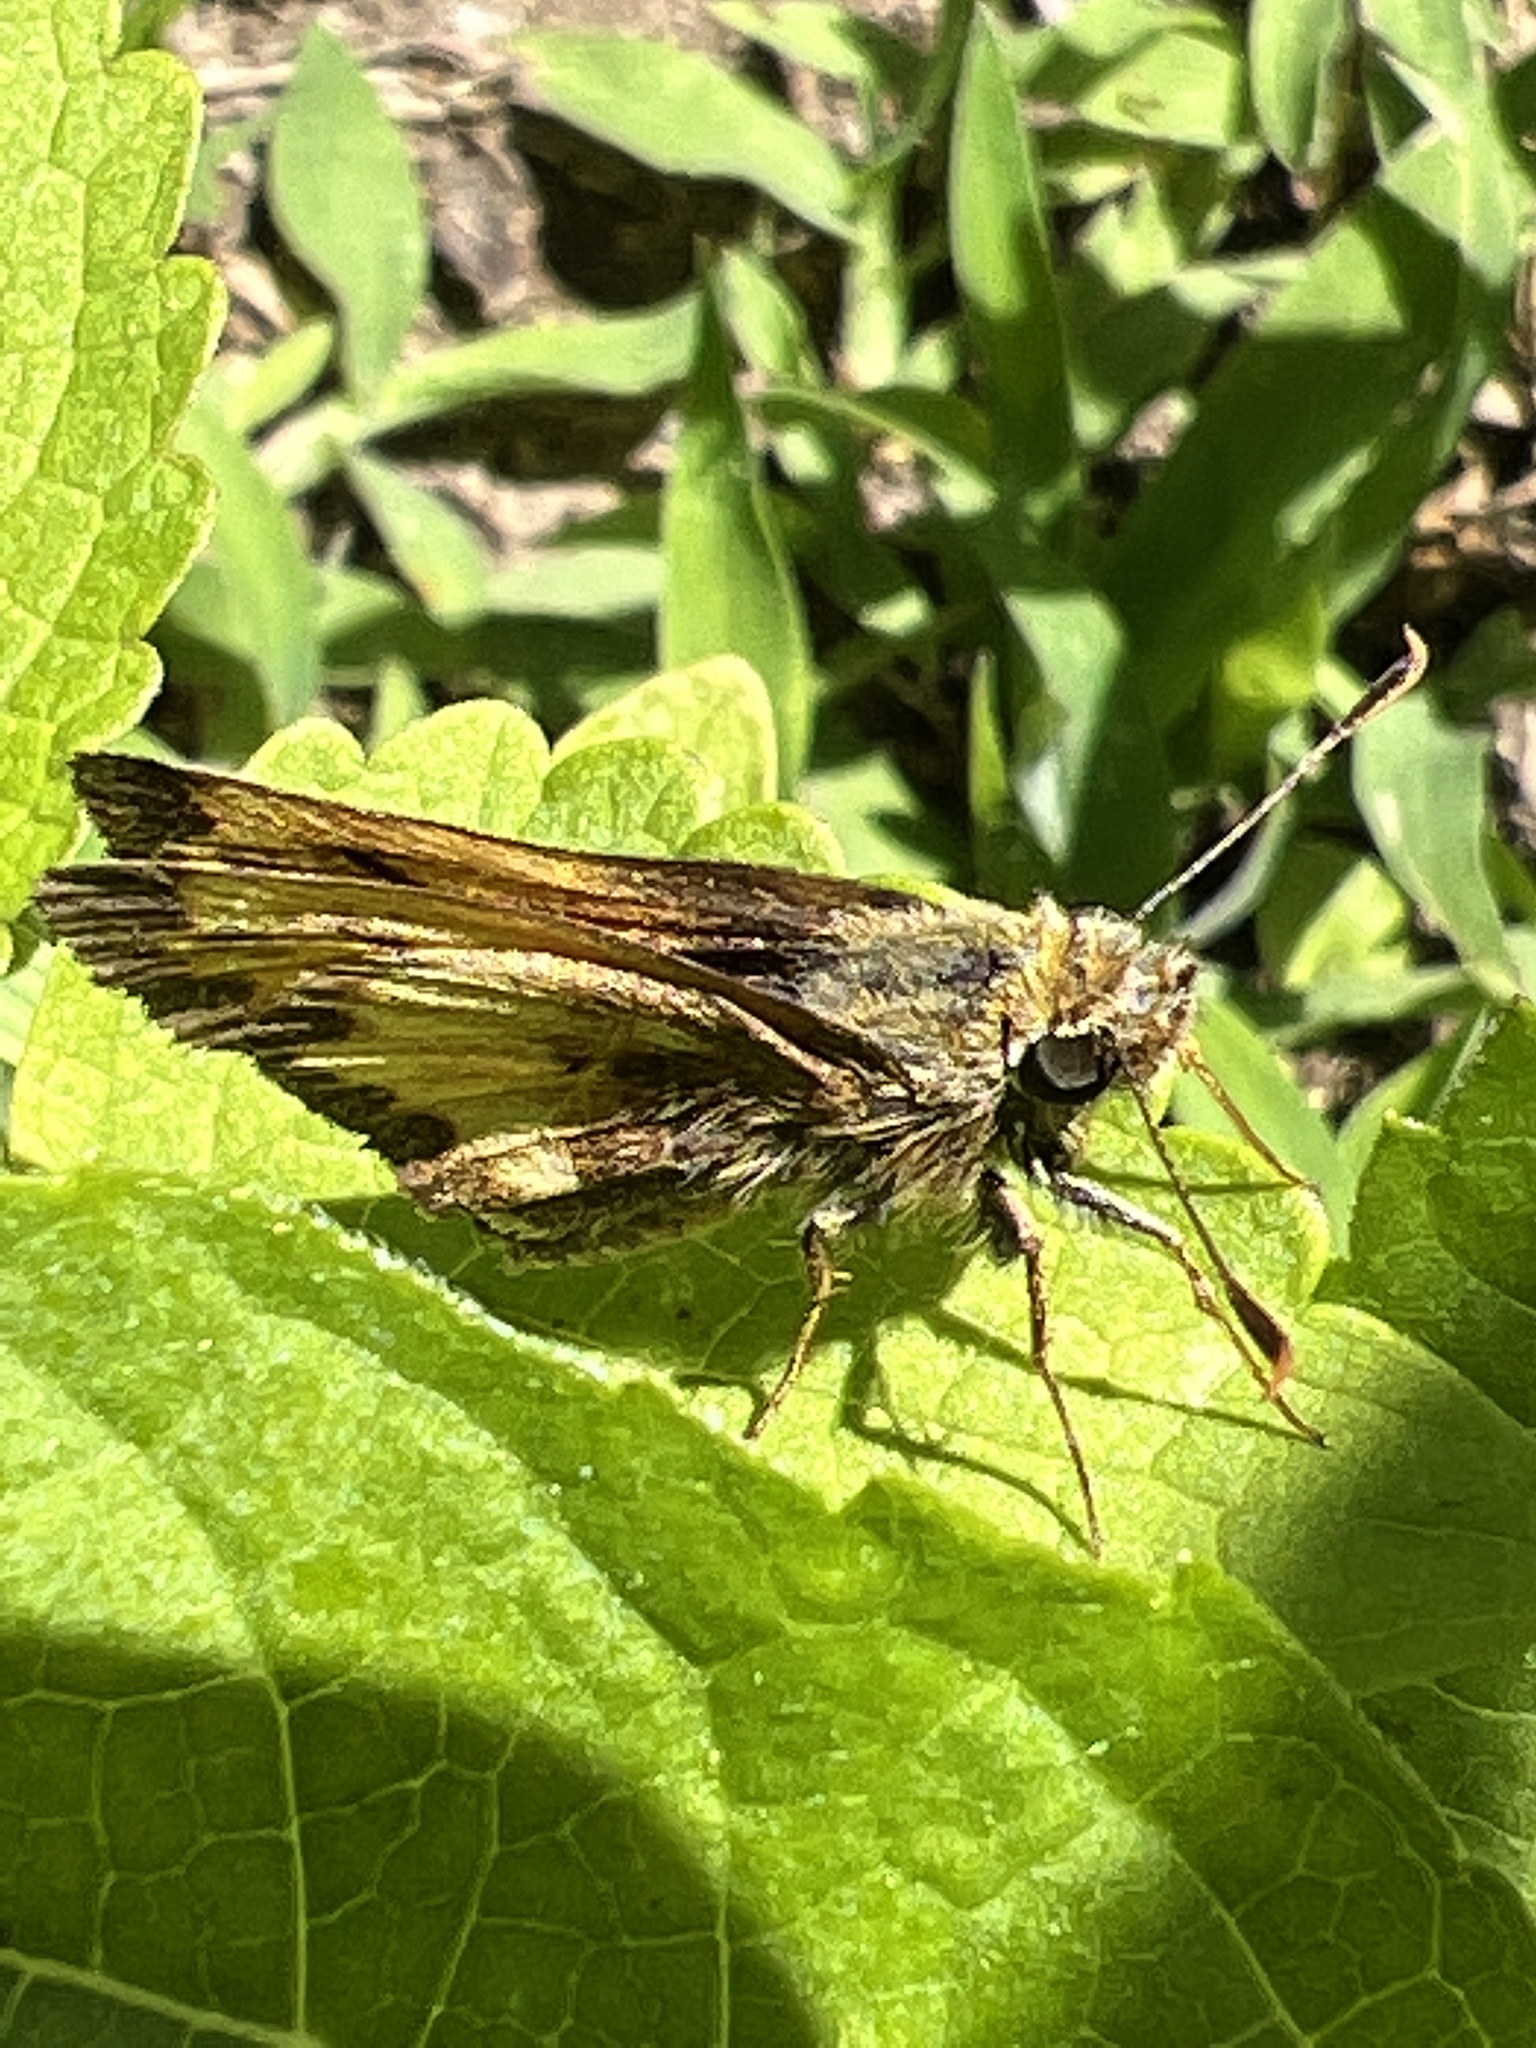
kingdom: Animalia
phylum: Arthropoda
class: Insecta
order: Lepidoptera
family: Hesperiidae
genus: Lon
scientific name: Lon hobomok
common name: Hobomok skipper
